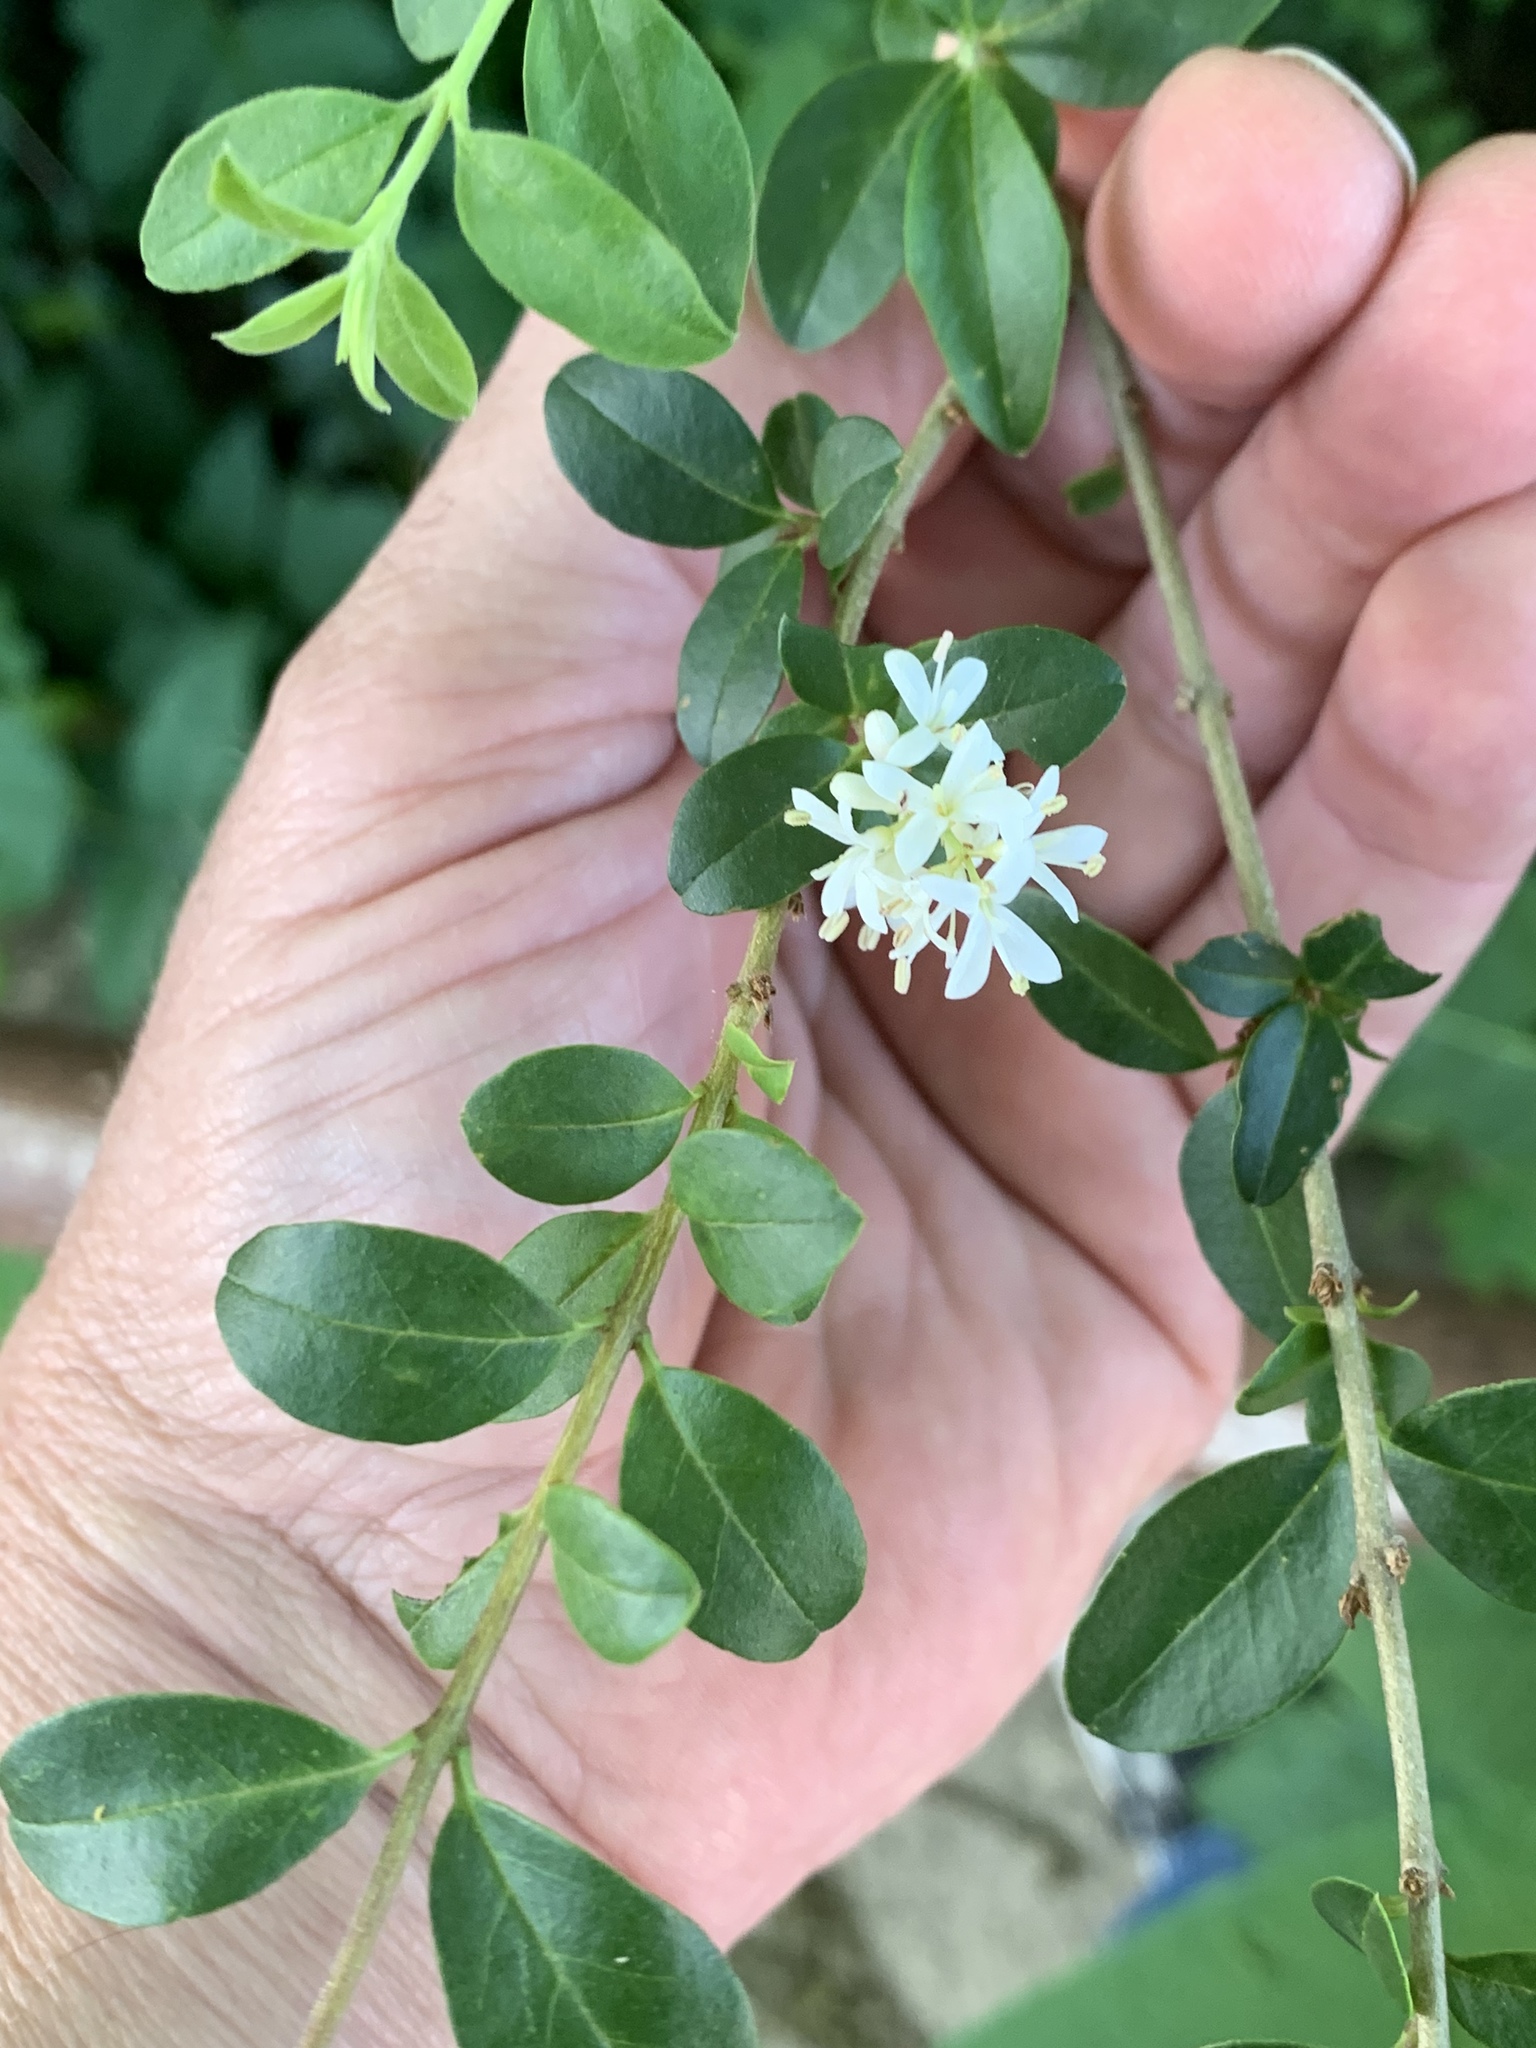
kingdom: Plantae
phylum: Tracheophyta
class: Magnoliopsida
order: Lamiales
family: Oleaceae
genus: Ligustrum
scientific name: Ligustrum sinense
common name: Chinese privet
